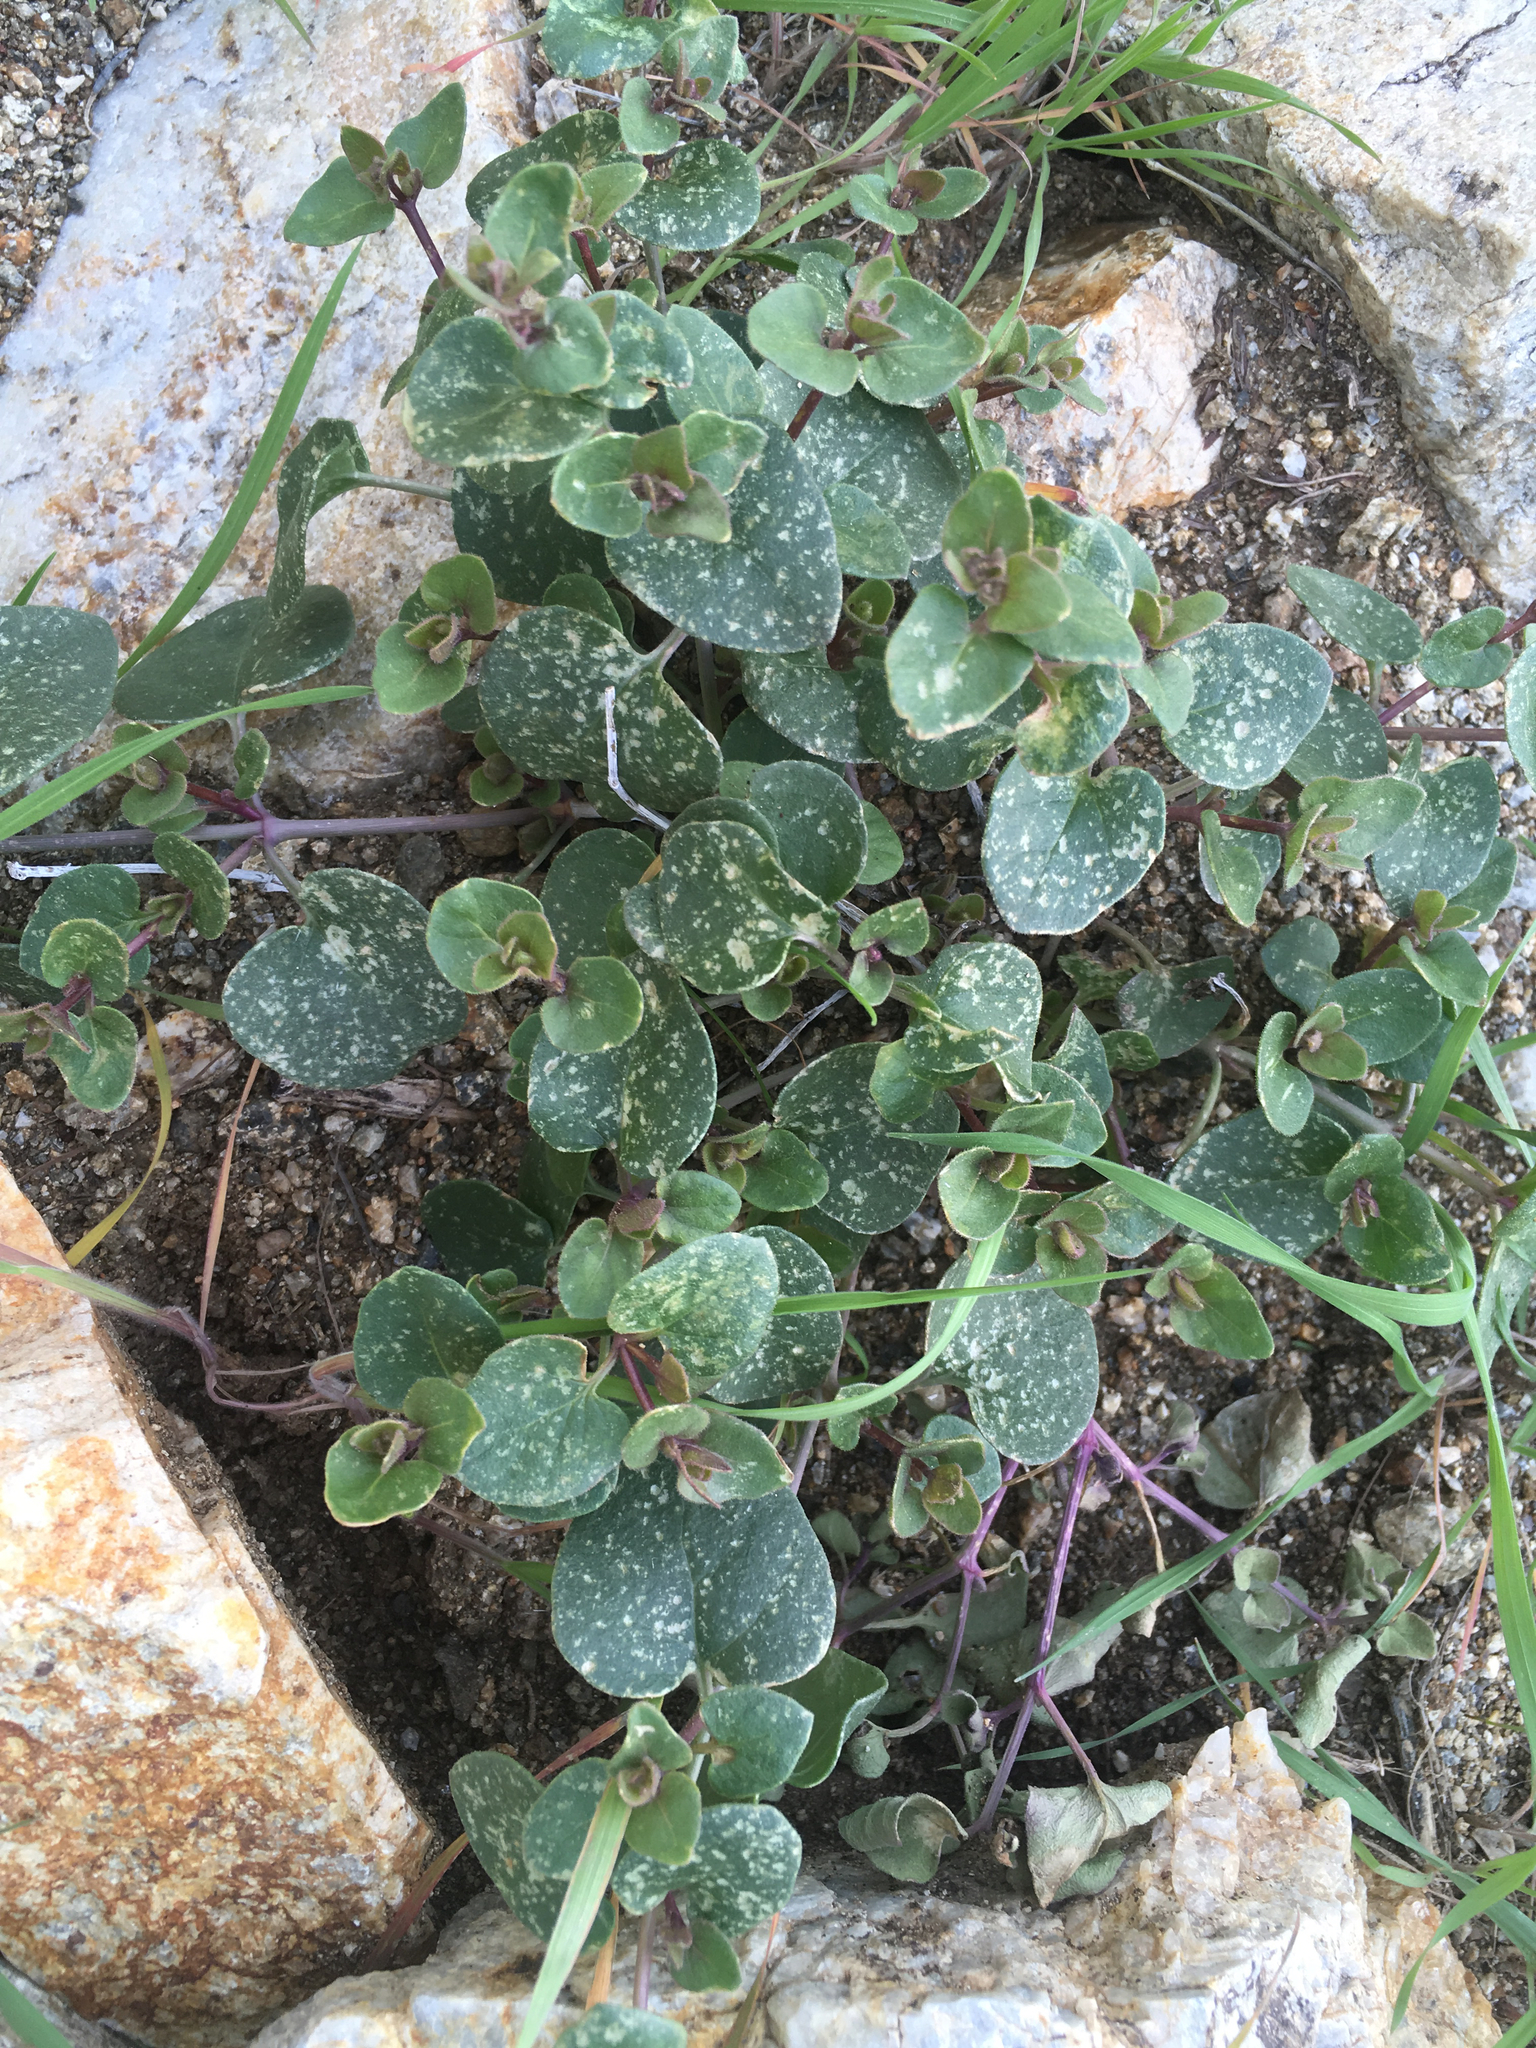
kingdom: Plantae
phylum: Tracheophyta
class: Magnoliopsida
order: Caryophyllales
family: Nyctaginaceae
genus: Mirabilis
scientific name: Mirabilis laevis
